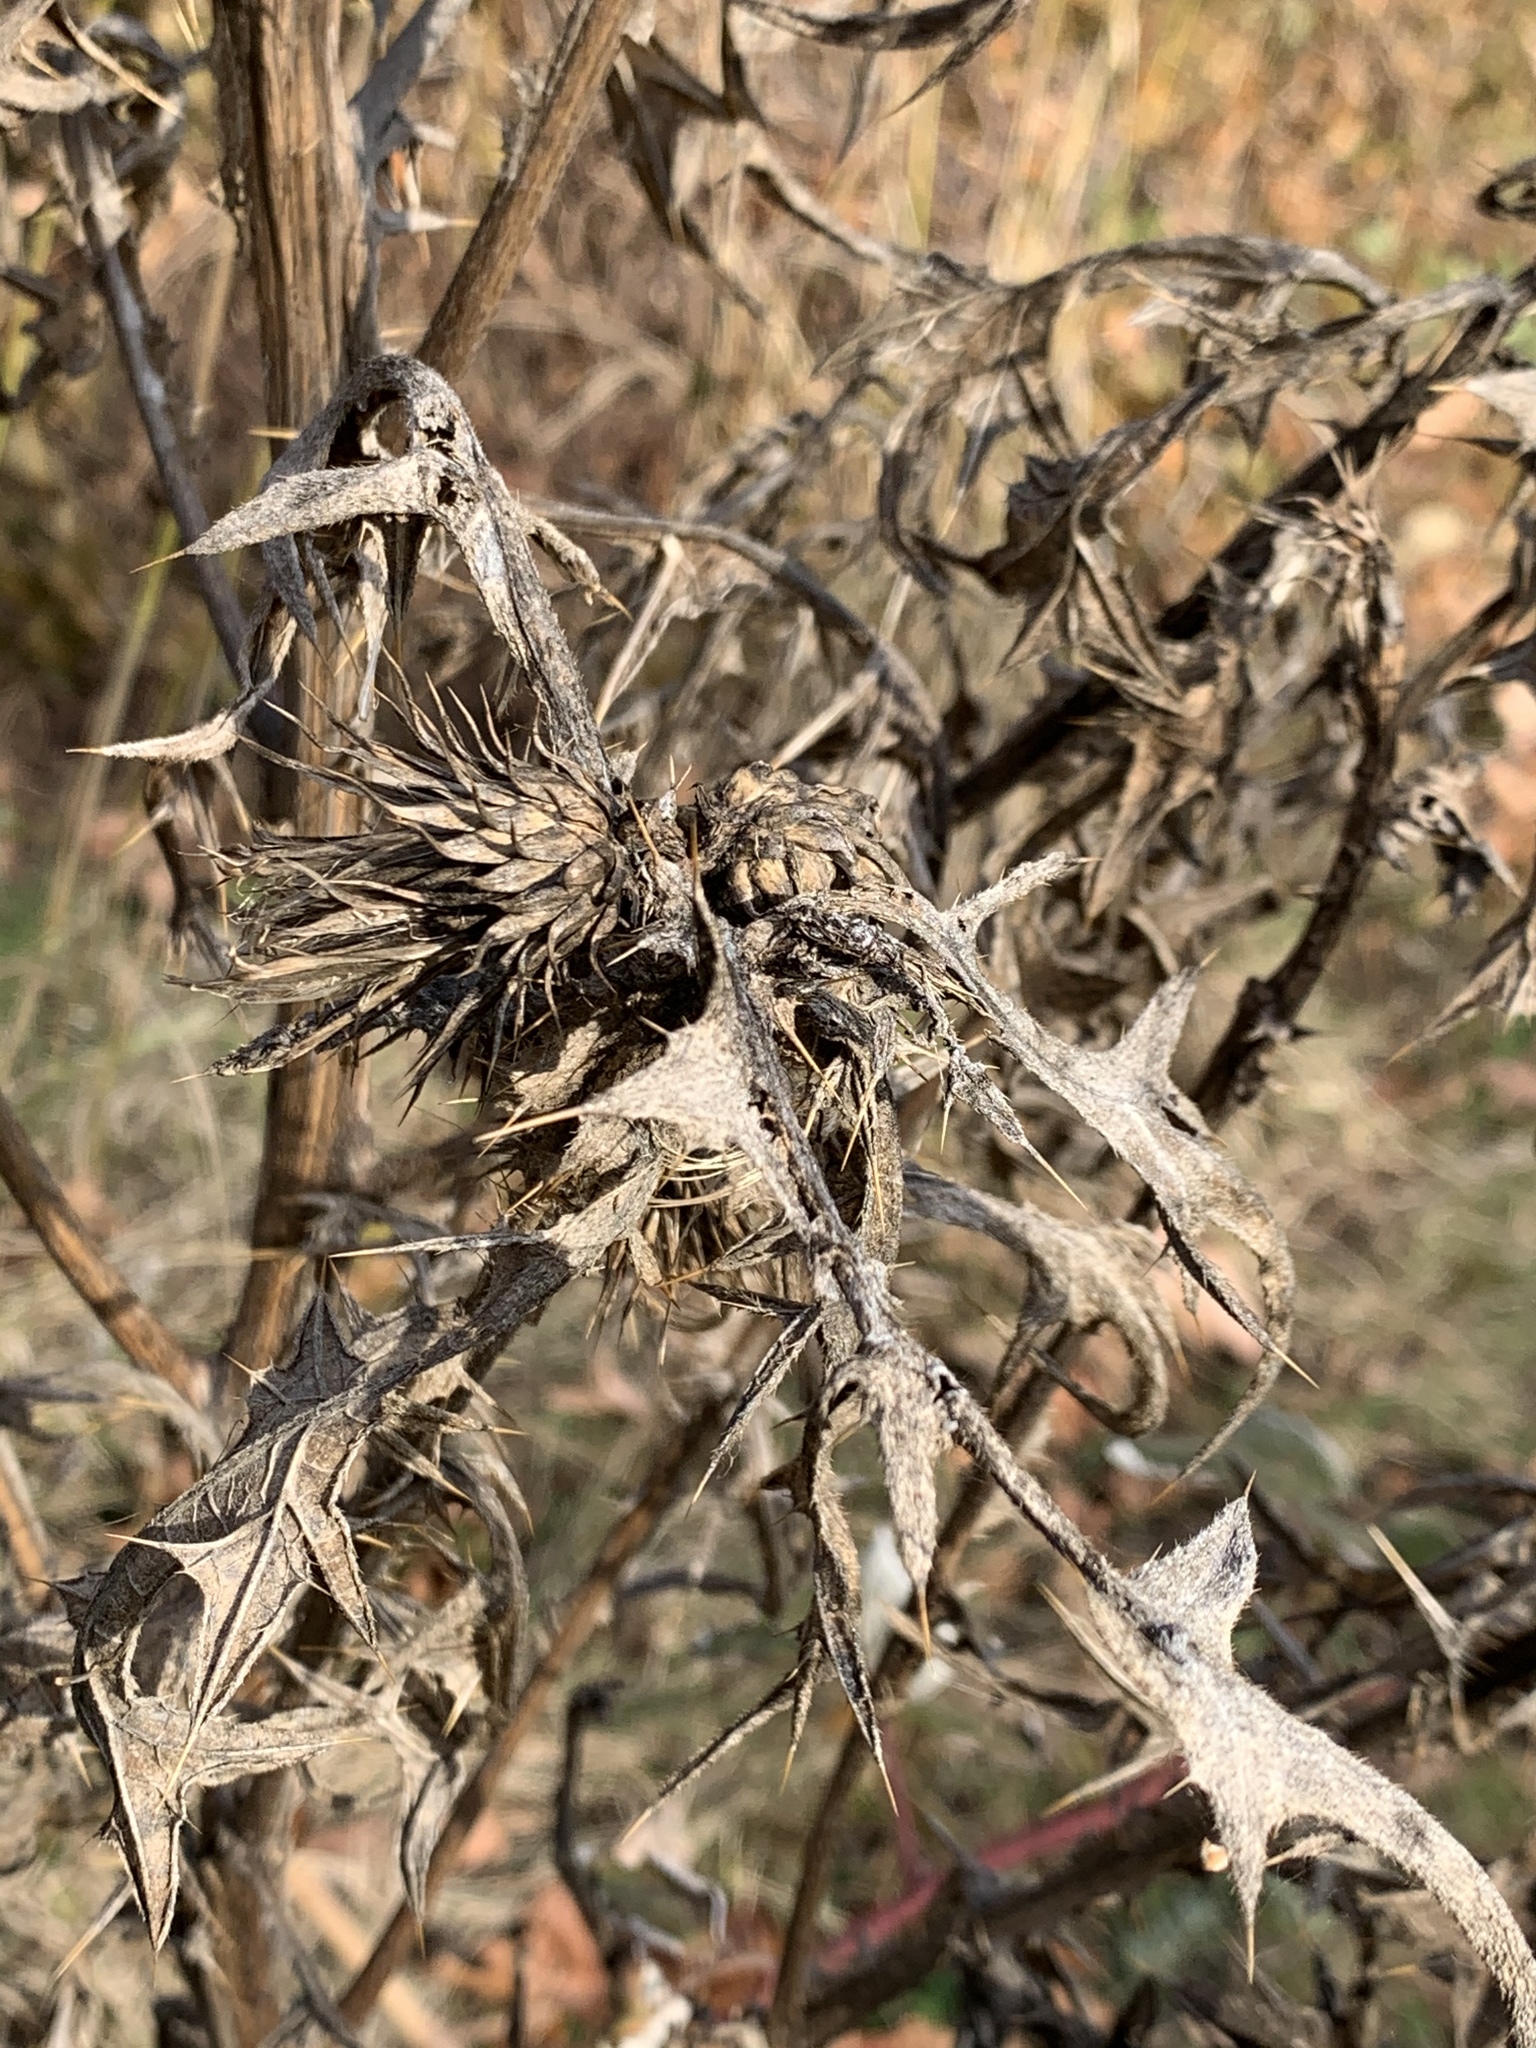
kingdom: Plantae
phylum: Tracheophyta
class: Magnoliopsida
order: Asterales
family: Asteraceae
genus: Cirsium
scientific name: Cirsium vulgare
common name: Bull thistle
